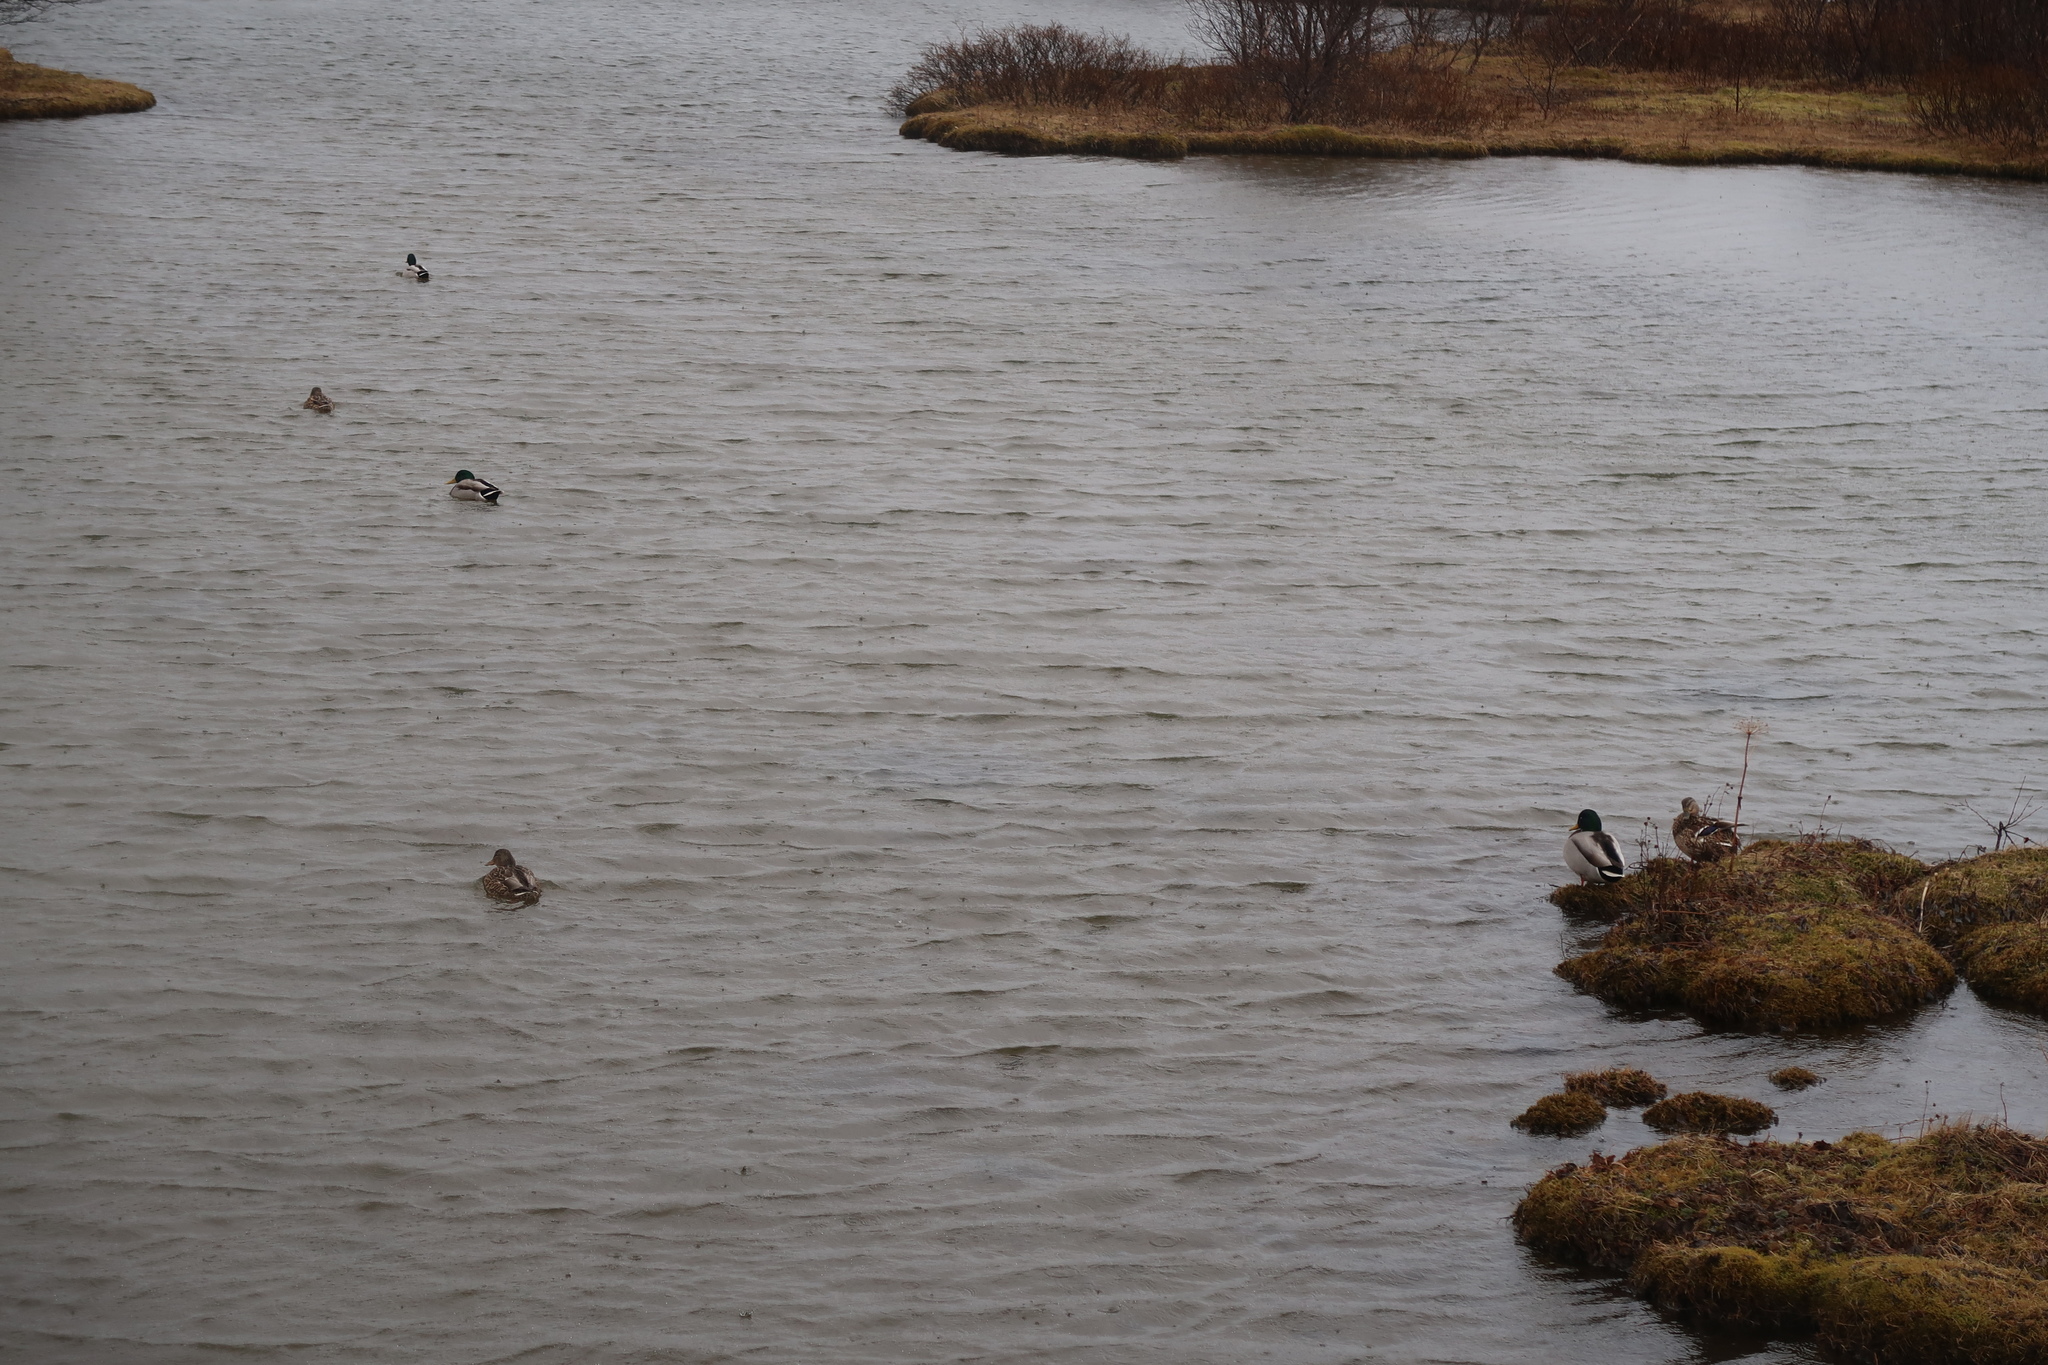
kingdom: Animalia
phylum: Chordata
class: Aves
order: Anseriformes
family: Anatidae
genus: Anas
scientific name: Anas platyrhynchos
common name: Mallard
